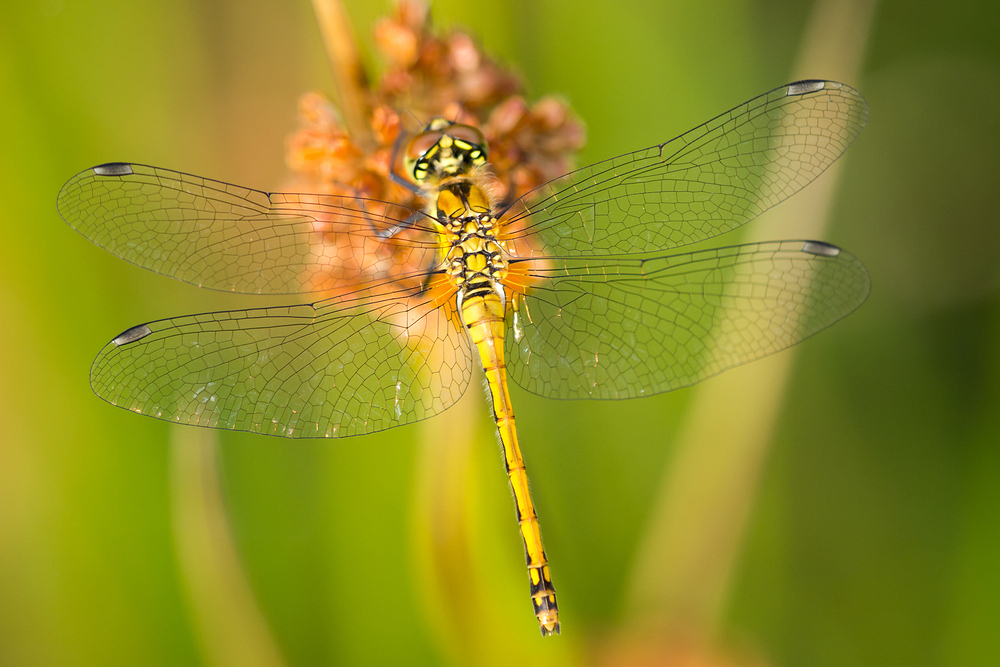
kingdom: Animalia
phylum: Arthropoda
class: Insecta
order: Odonata
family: Libellulidae
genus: Sympetrum
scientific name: Sympetrum danae
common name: Black darter
